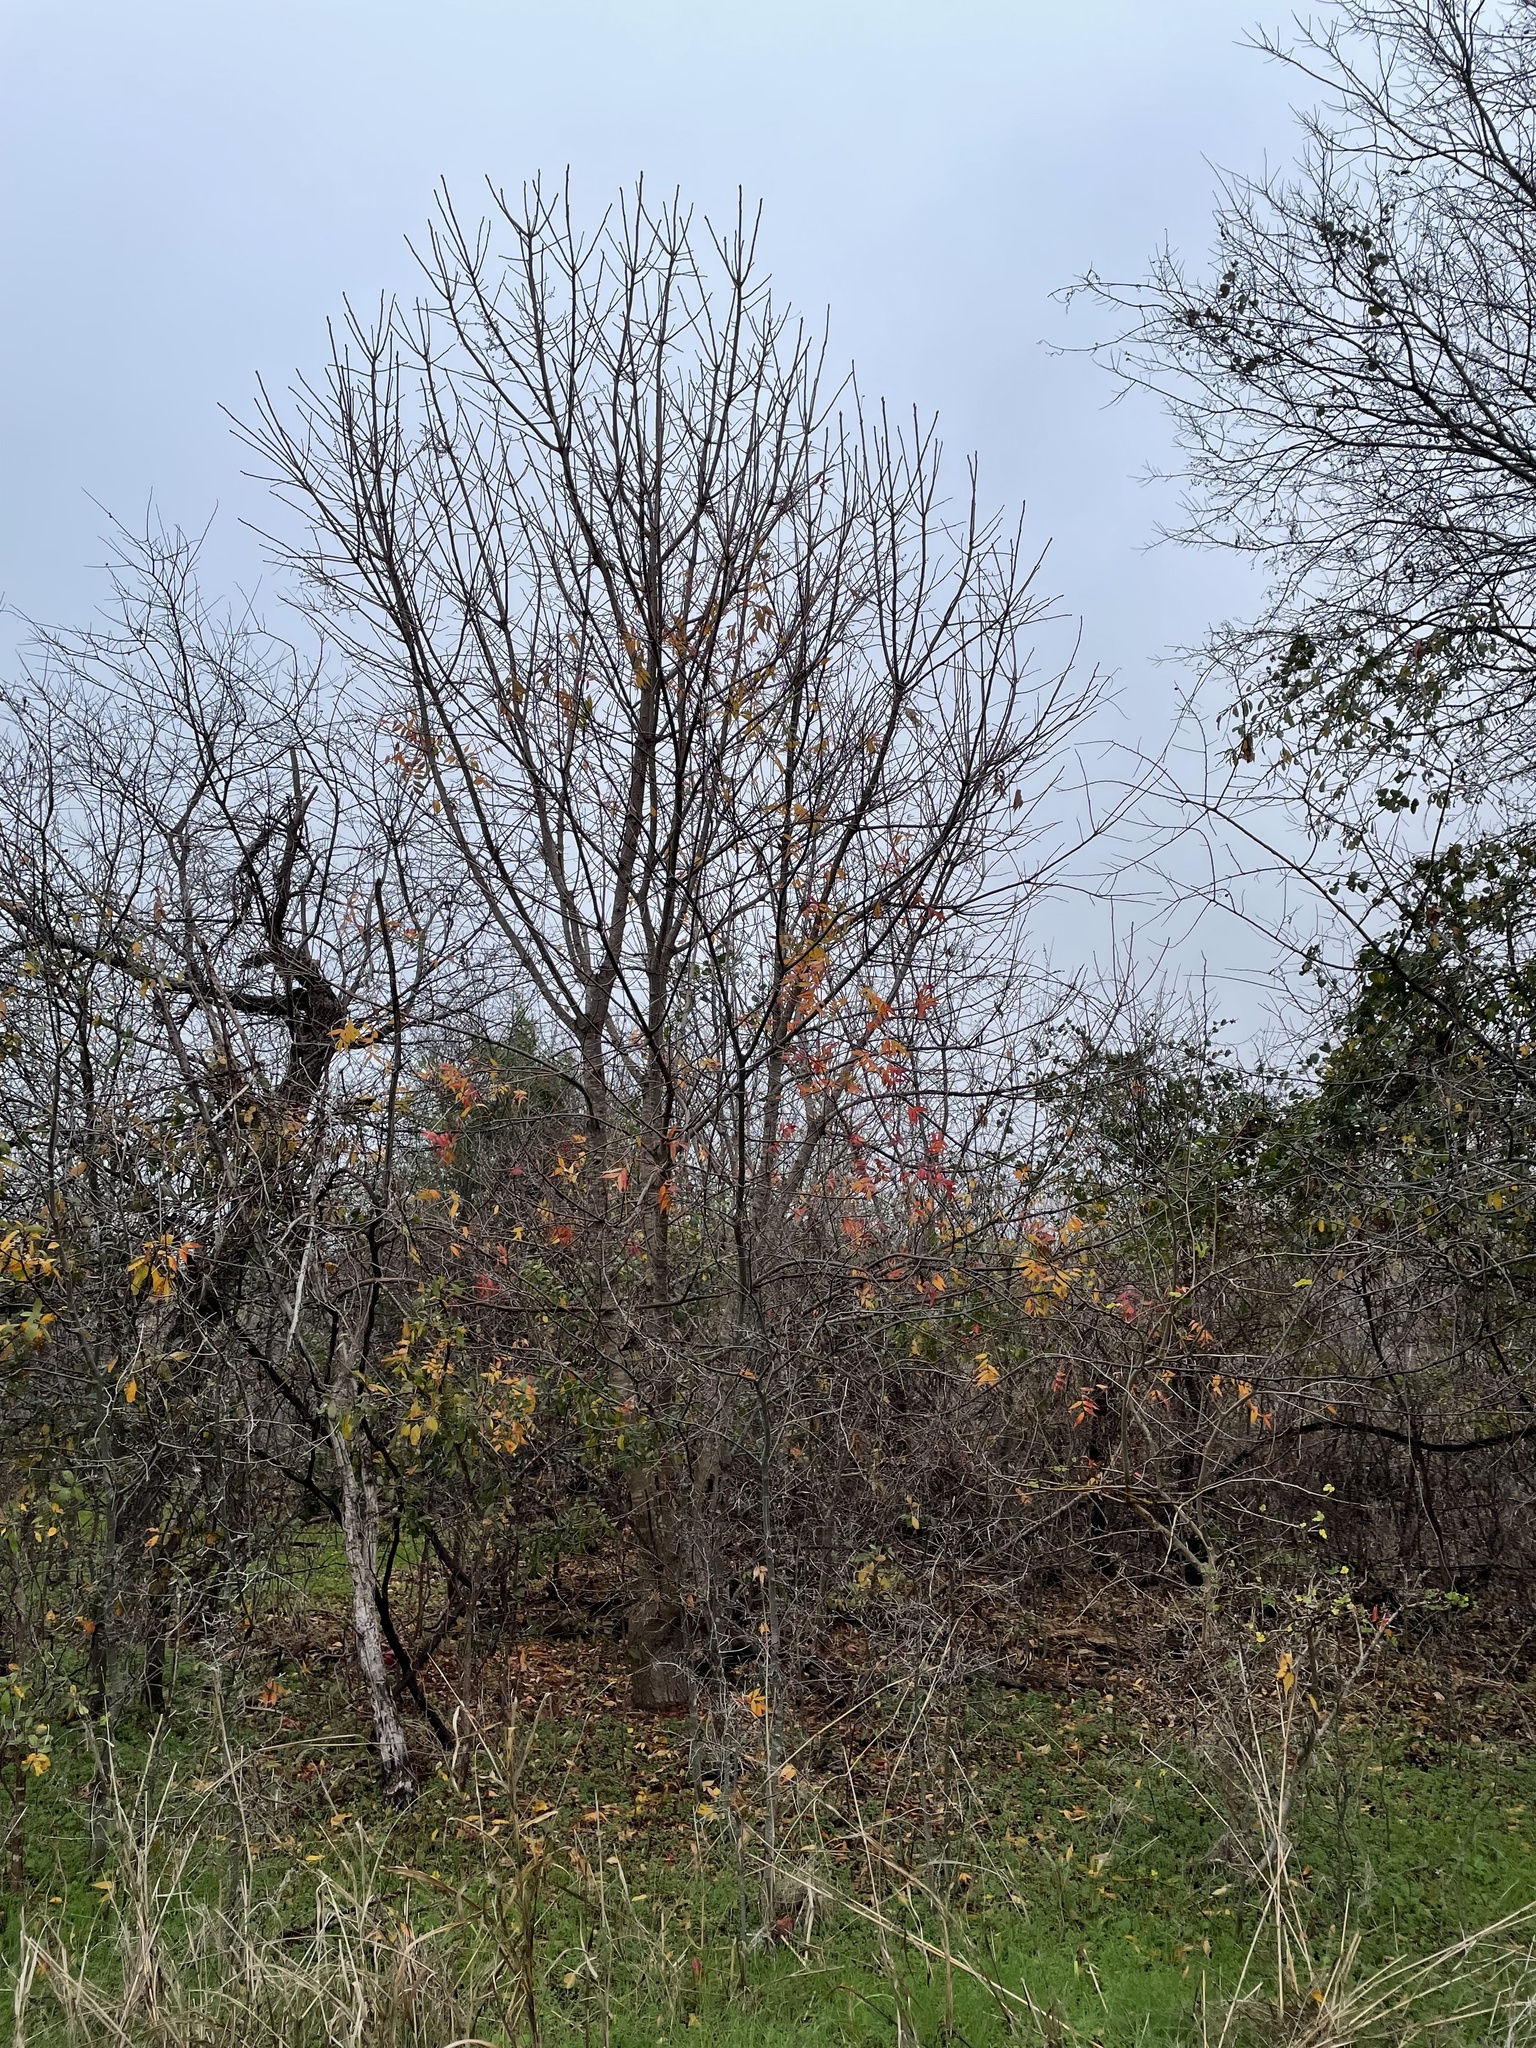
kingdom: Plantae
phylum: Tracheophyta
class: Magnoliopsida
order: Sapindales
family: Anacardiaceae
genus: Pistacia
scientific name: Pistacia chinensis
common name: Chinese pistache
